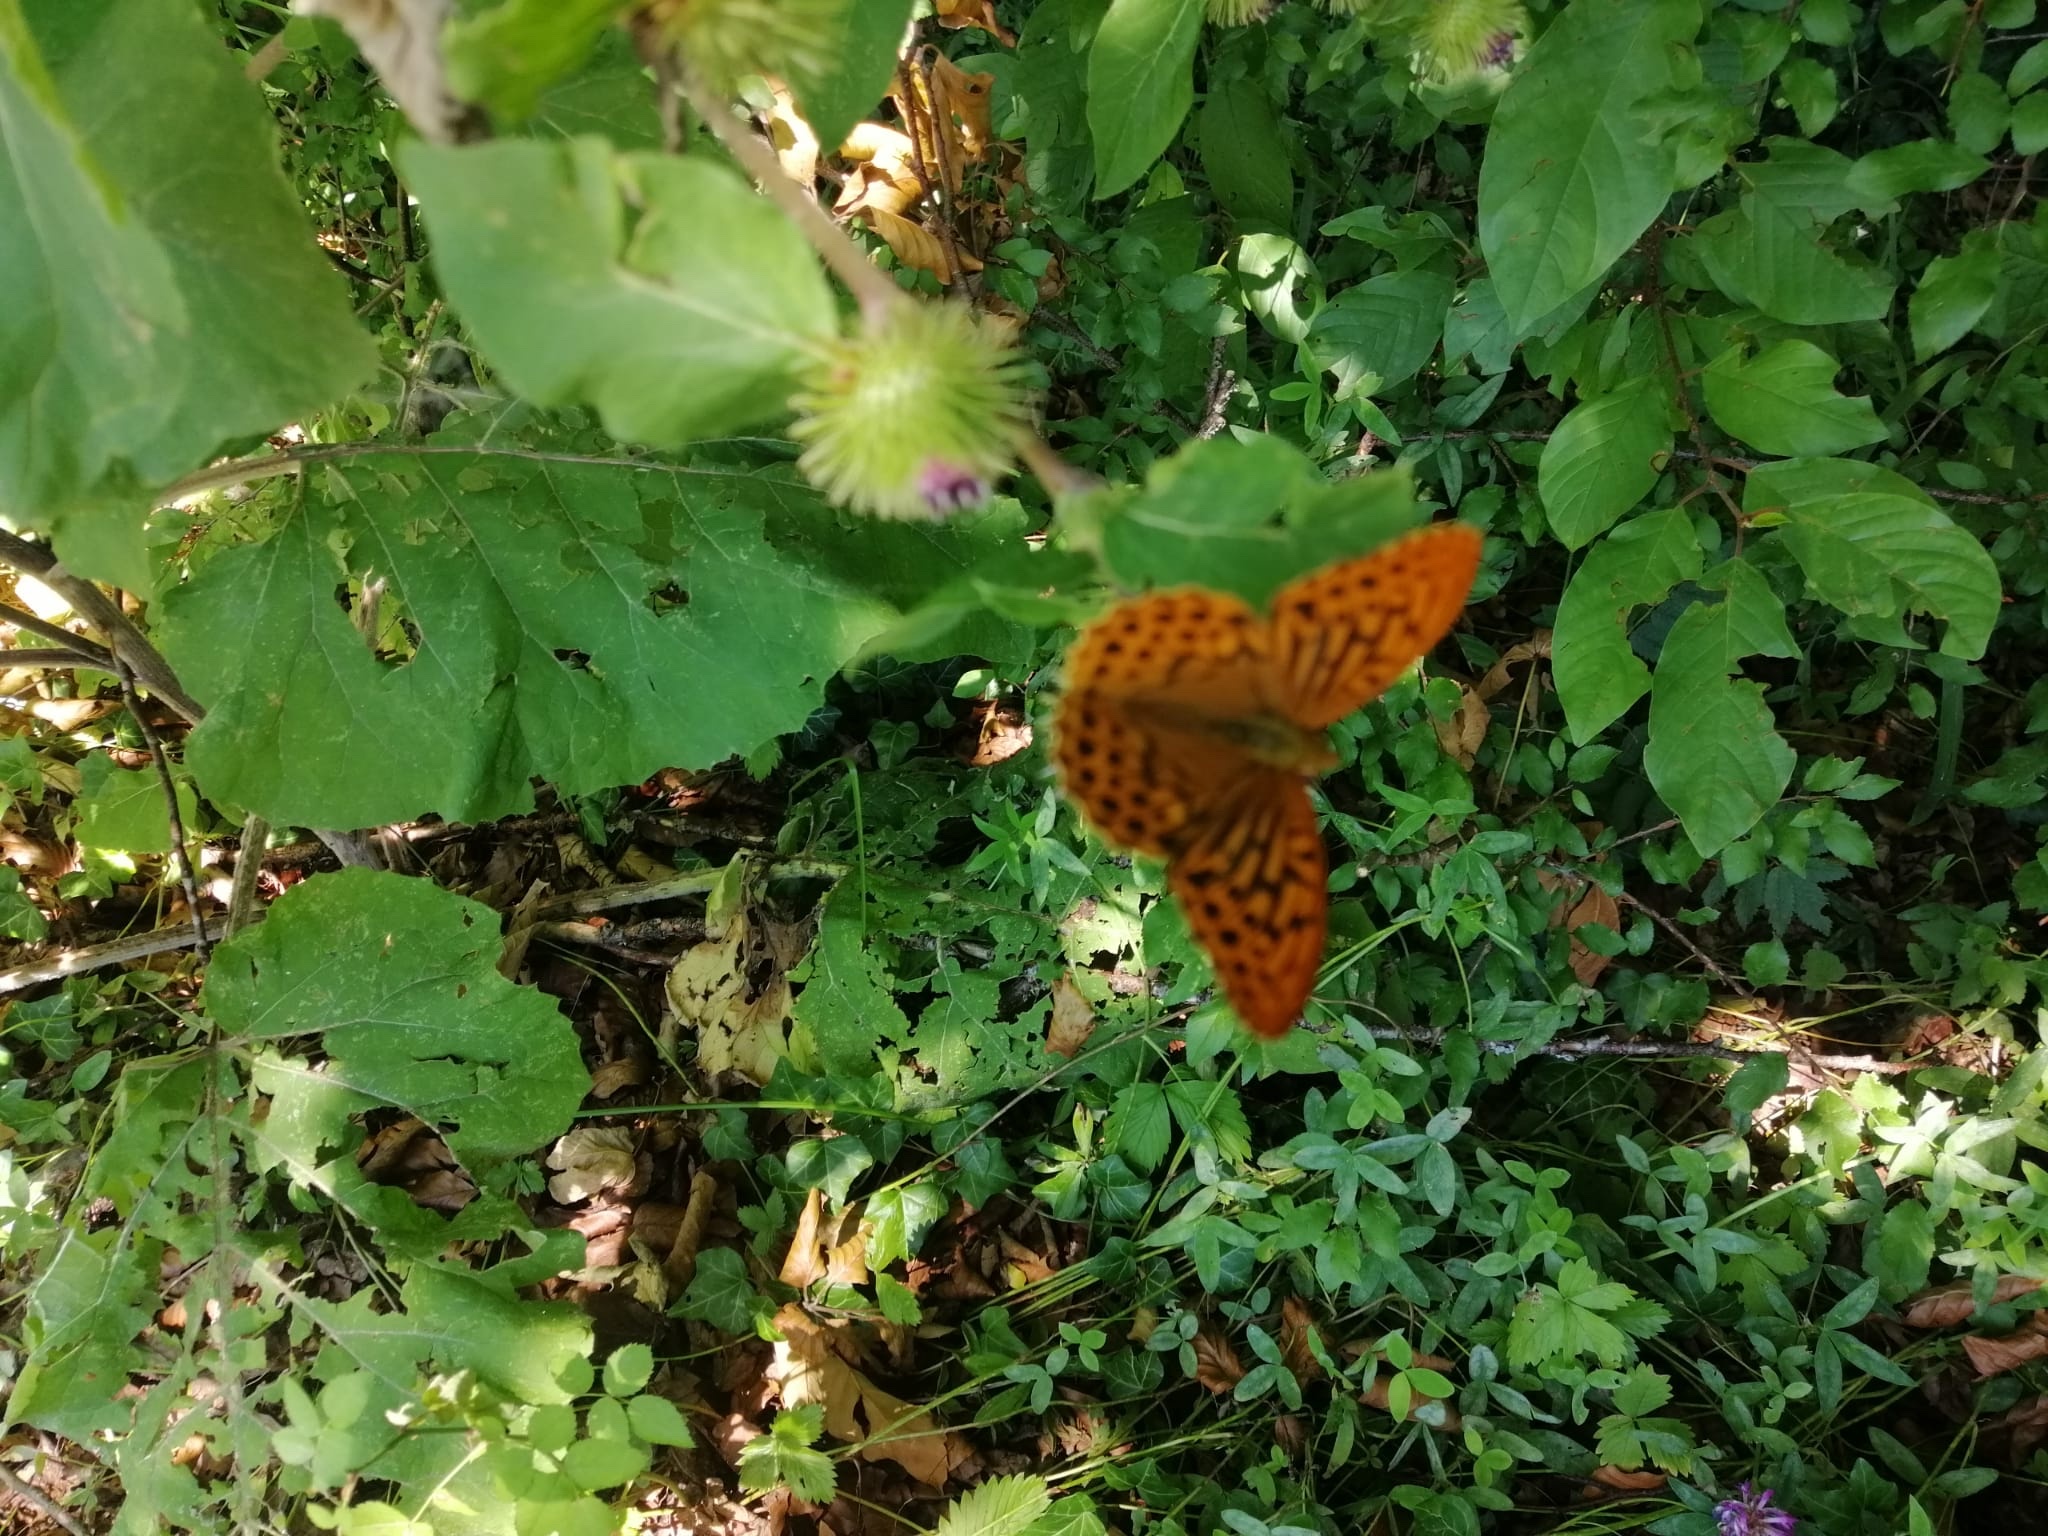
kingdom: Animalia
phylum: Arthropoda
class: Insecta
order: Lepidoptera
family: Nymphalidae
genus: Argynnis
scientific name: Argynnis paphia
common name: Silver-washed fritillary
